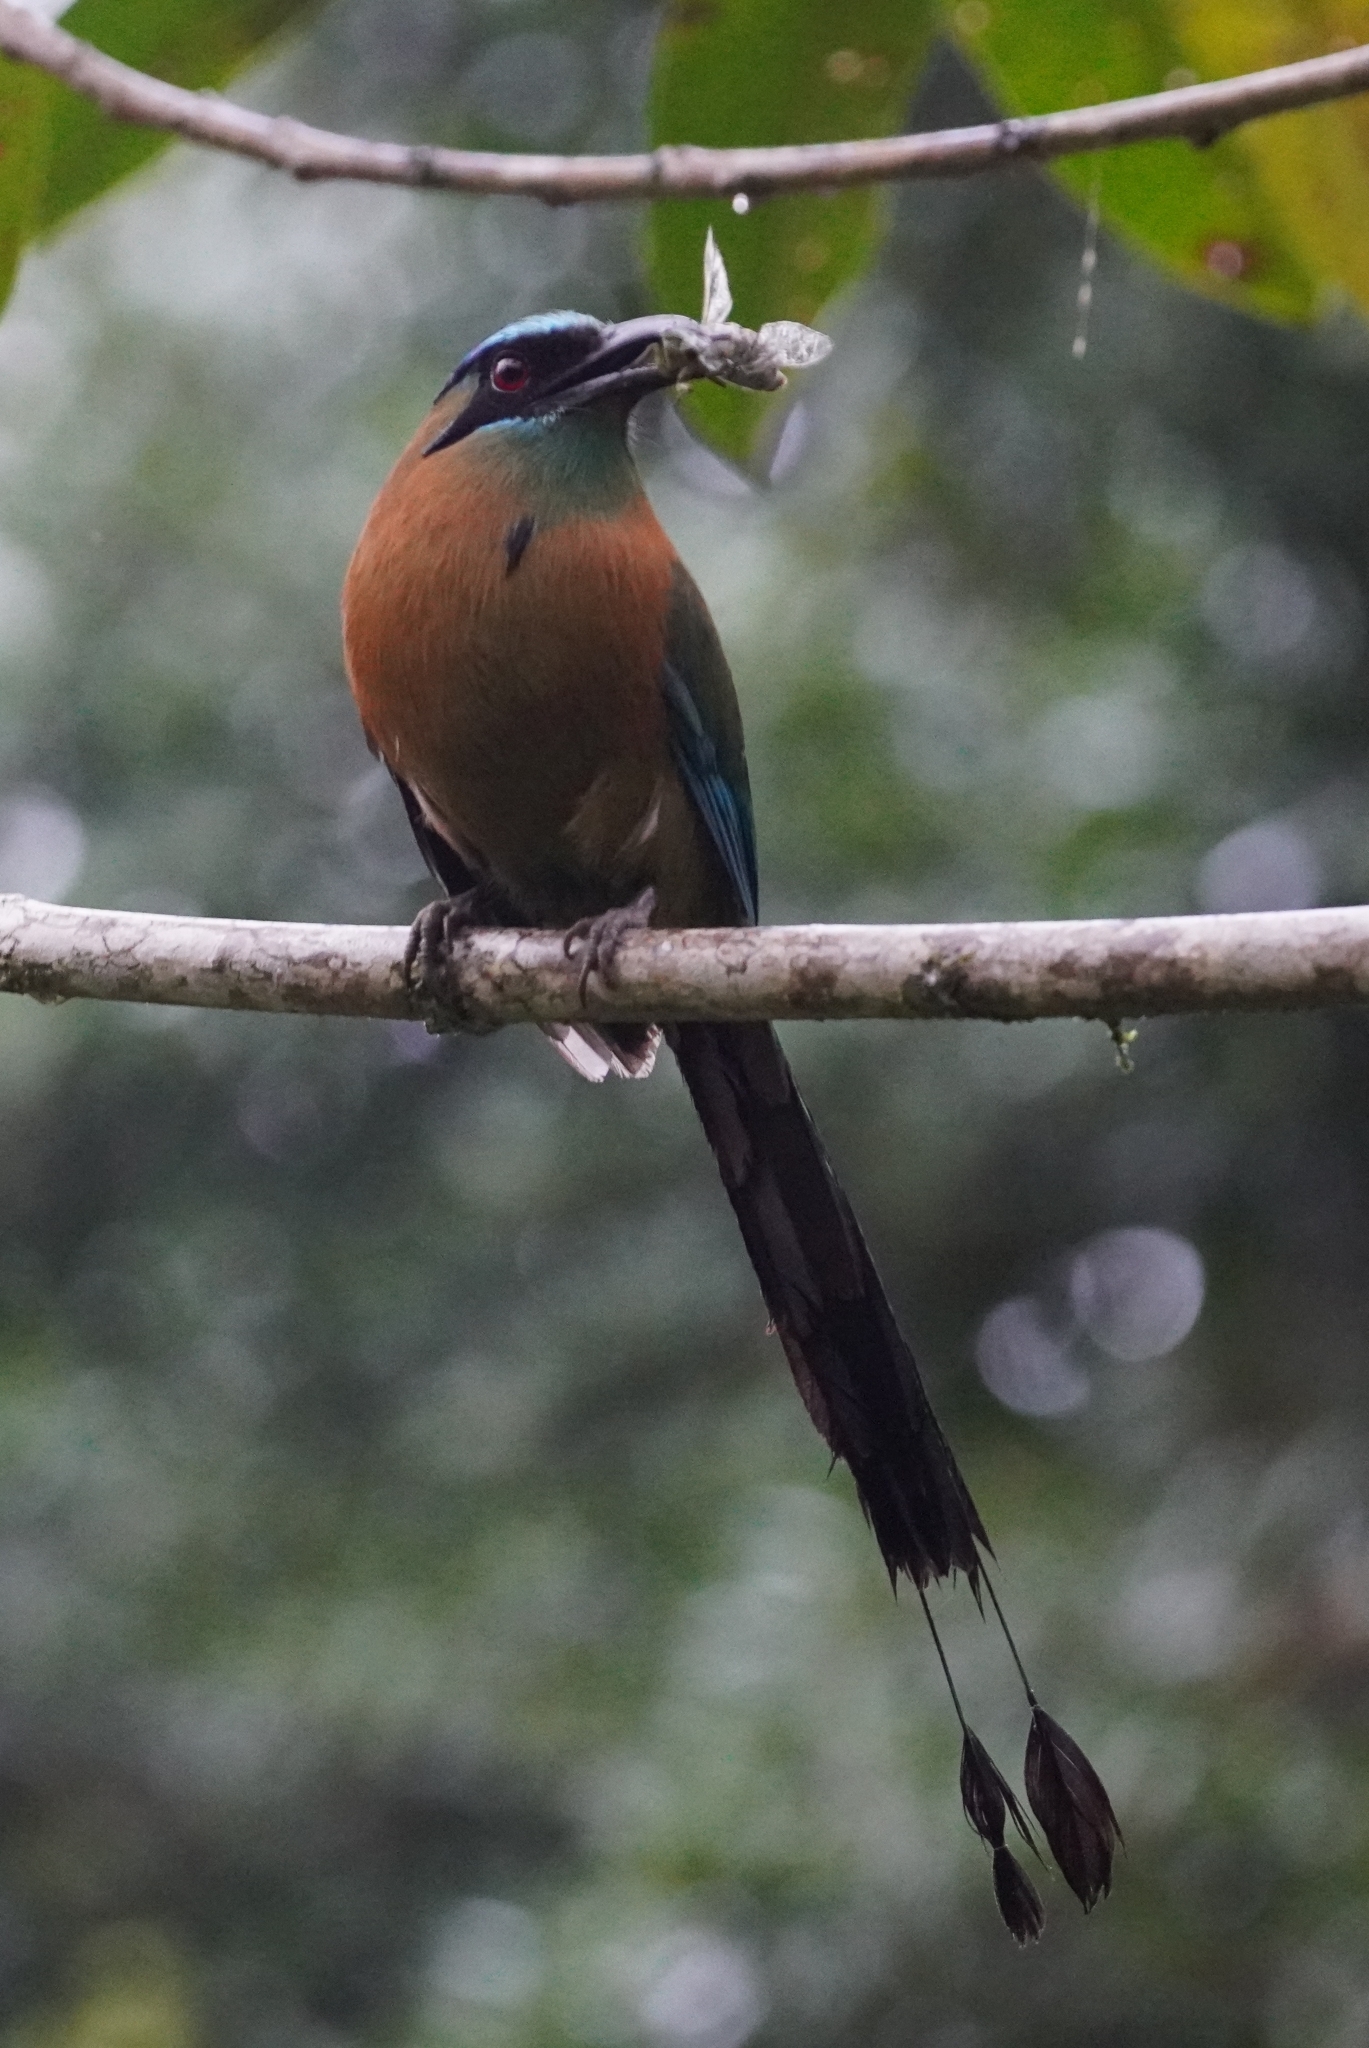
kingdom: Animalia
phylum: Chordata
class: Aves
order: Coraciiformes
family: Momotidae
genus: Momotus
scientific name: Momotus lessonii
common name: Lesson's motmot
